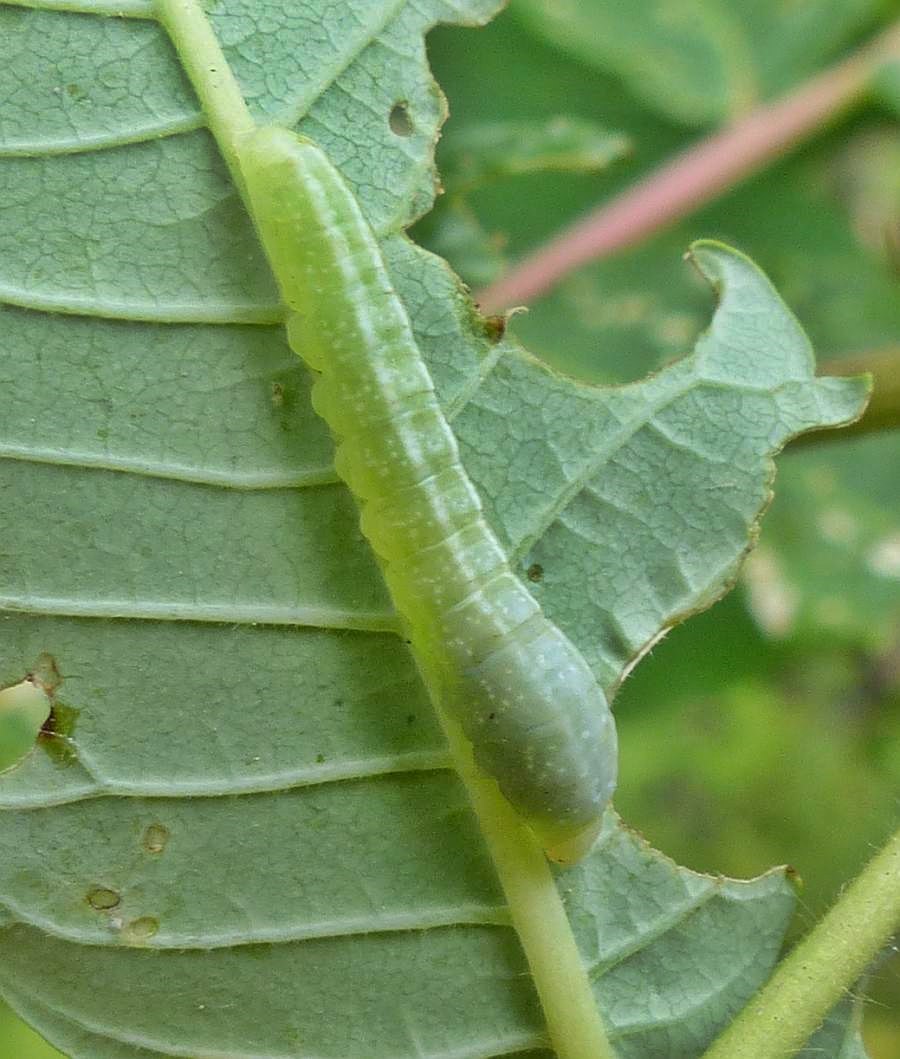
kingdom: Animalia
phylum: Arthropoda
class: Insecta
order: Lepidoptera
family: Euteliidae
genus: Marathyssa
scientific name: Marathyssa inficita
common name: Dark marathyssa moth
